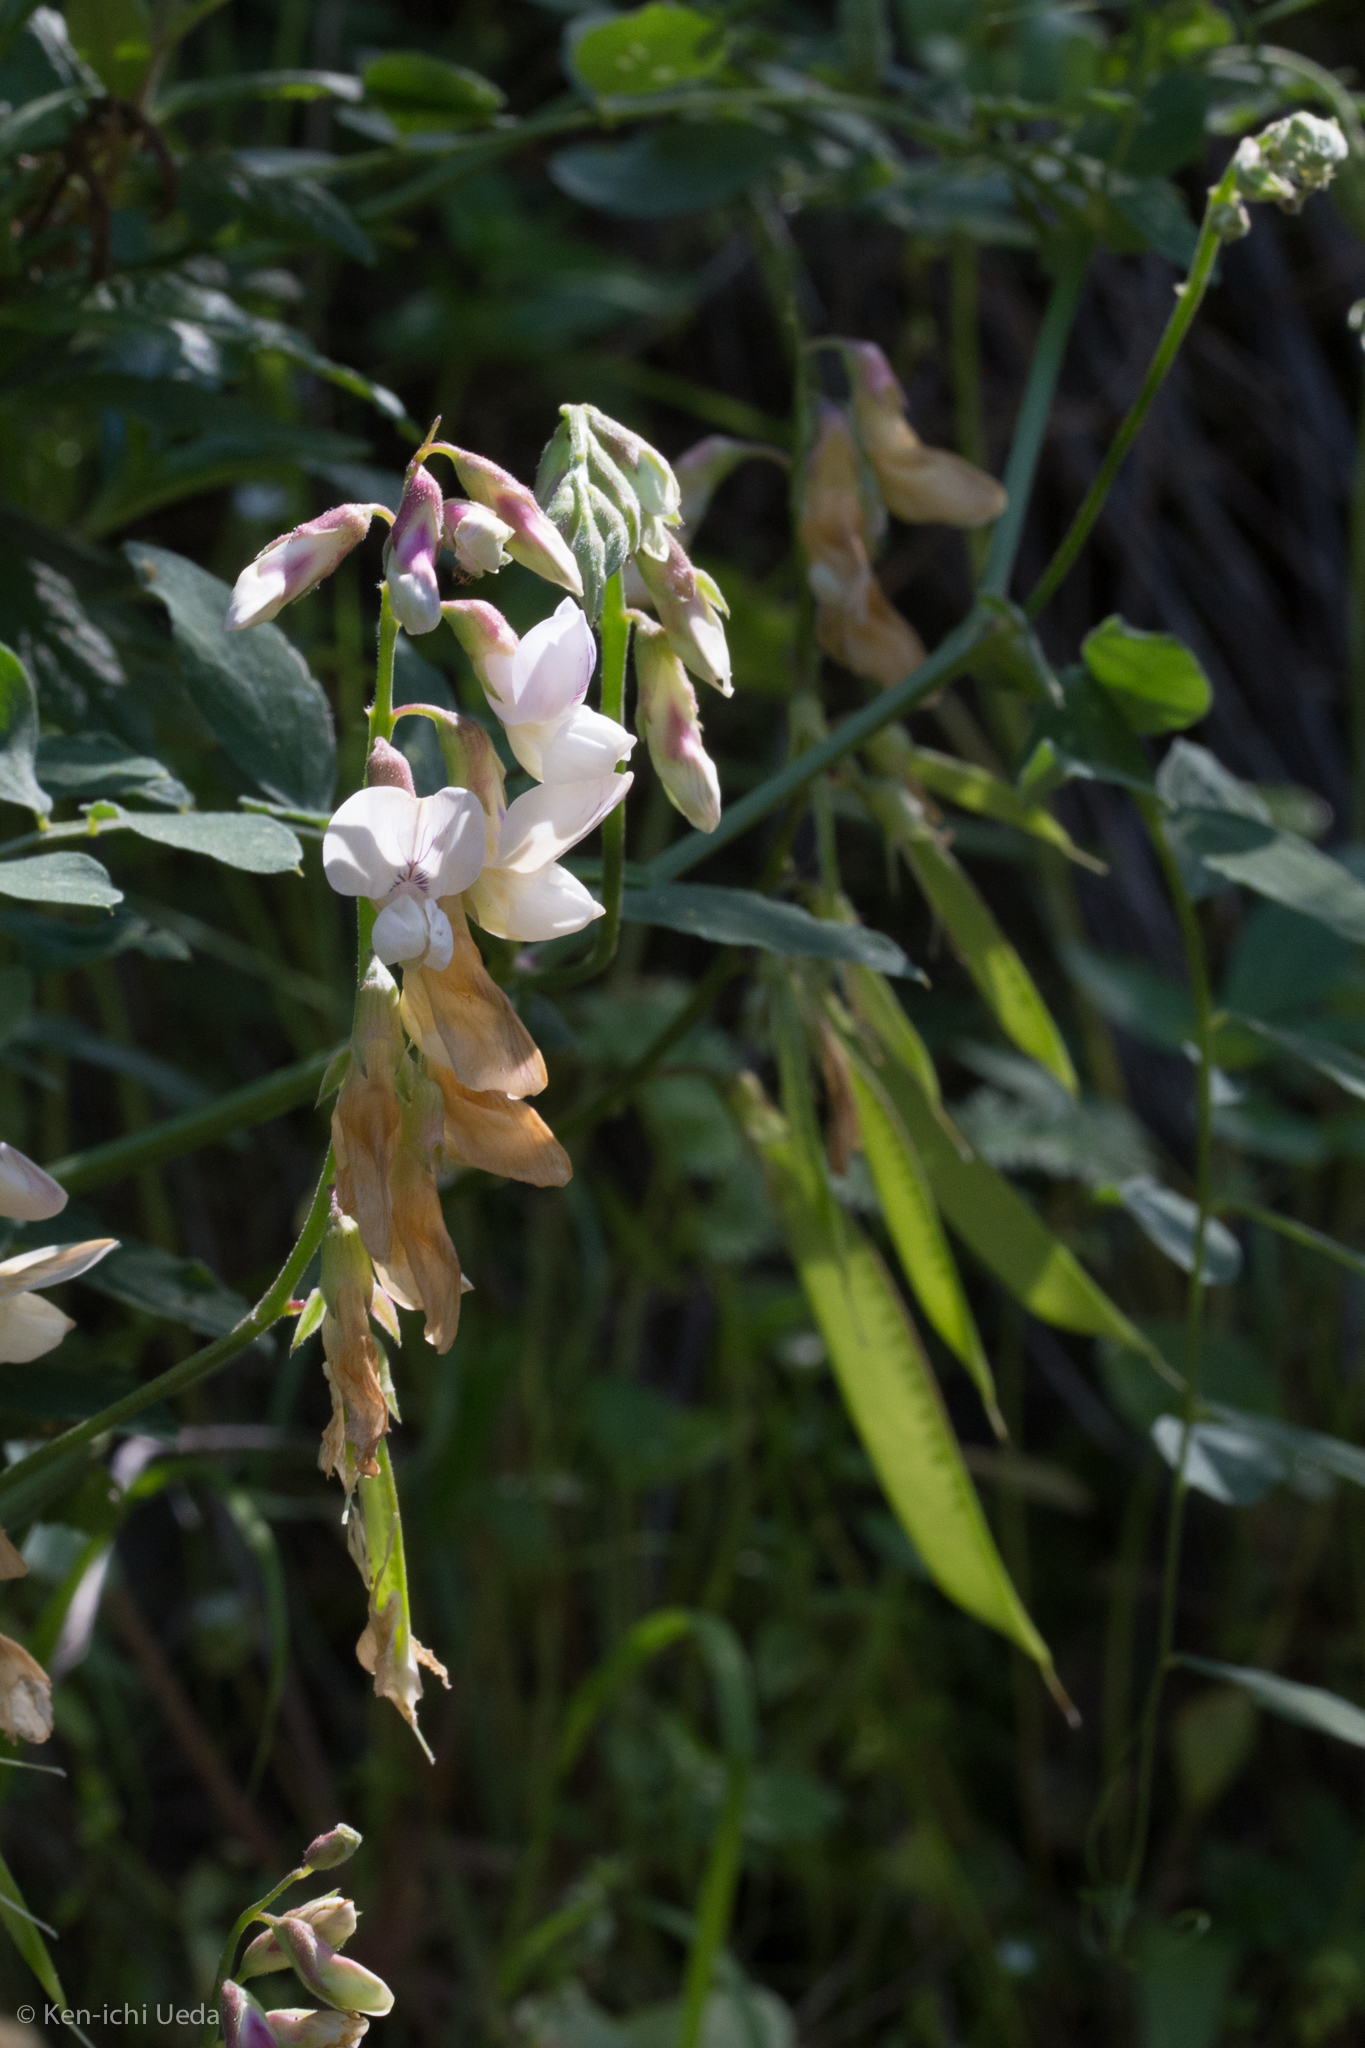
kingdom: Plantae
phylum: Tracheophyta
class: Magnoliopsida
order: Fabales
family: Fabaceae
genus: Lathyrus
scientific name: Lathyrus vestitus
